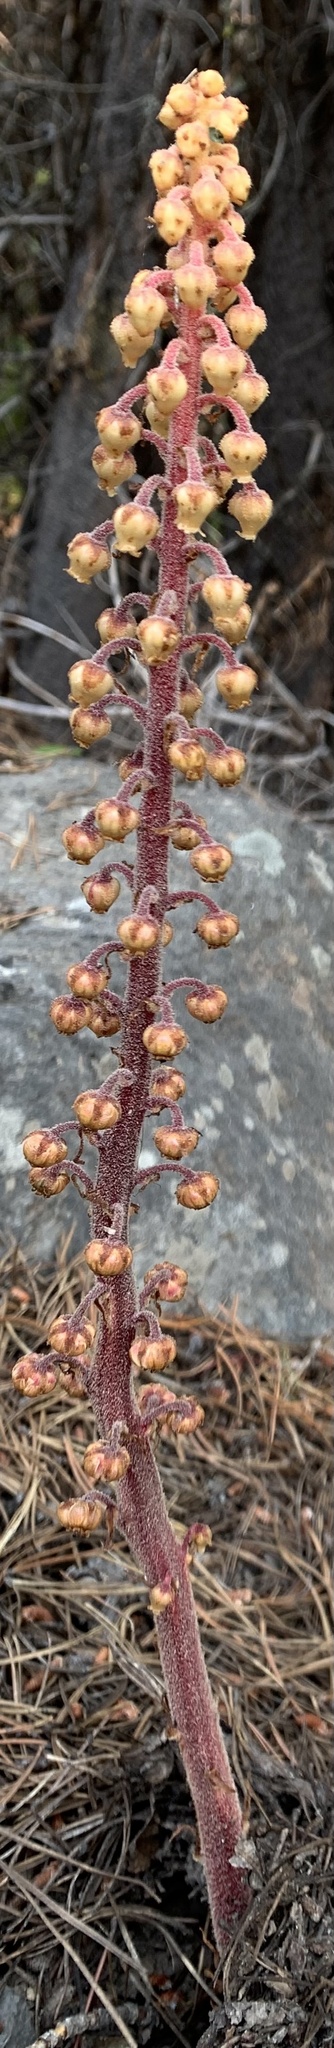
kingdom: Plantae
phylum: Tracheophyta
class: Magnoliopsida
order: Ericales
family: Ericaceae
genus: Pterospora
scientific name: Pterospora andromedea
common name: Giant bird's-nest
